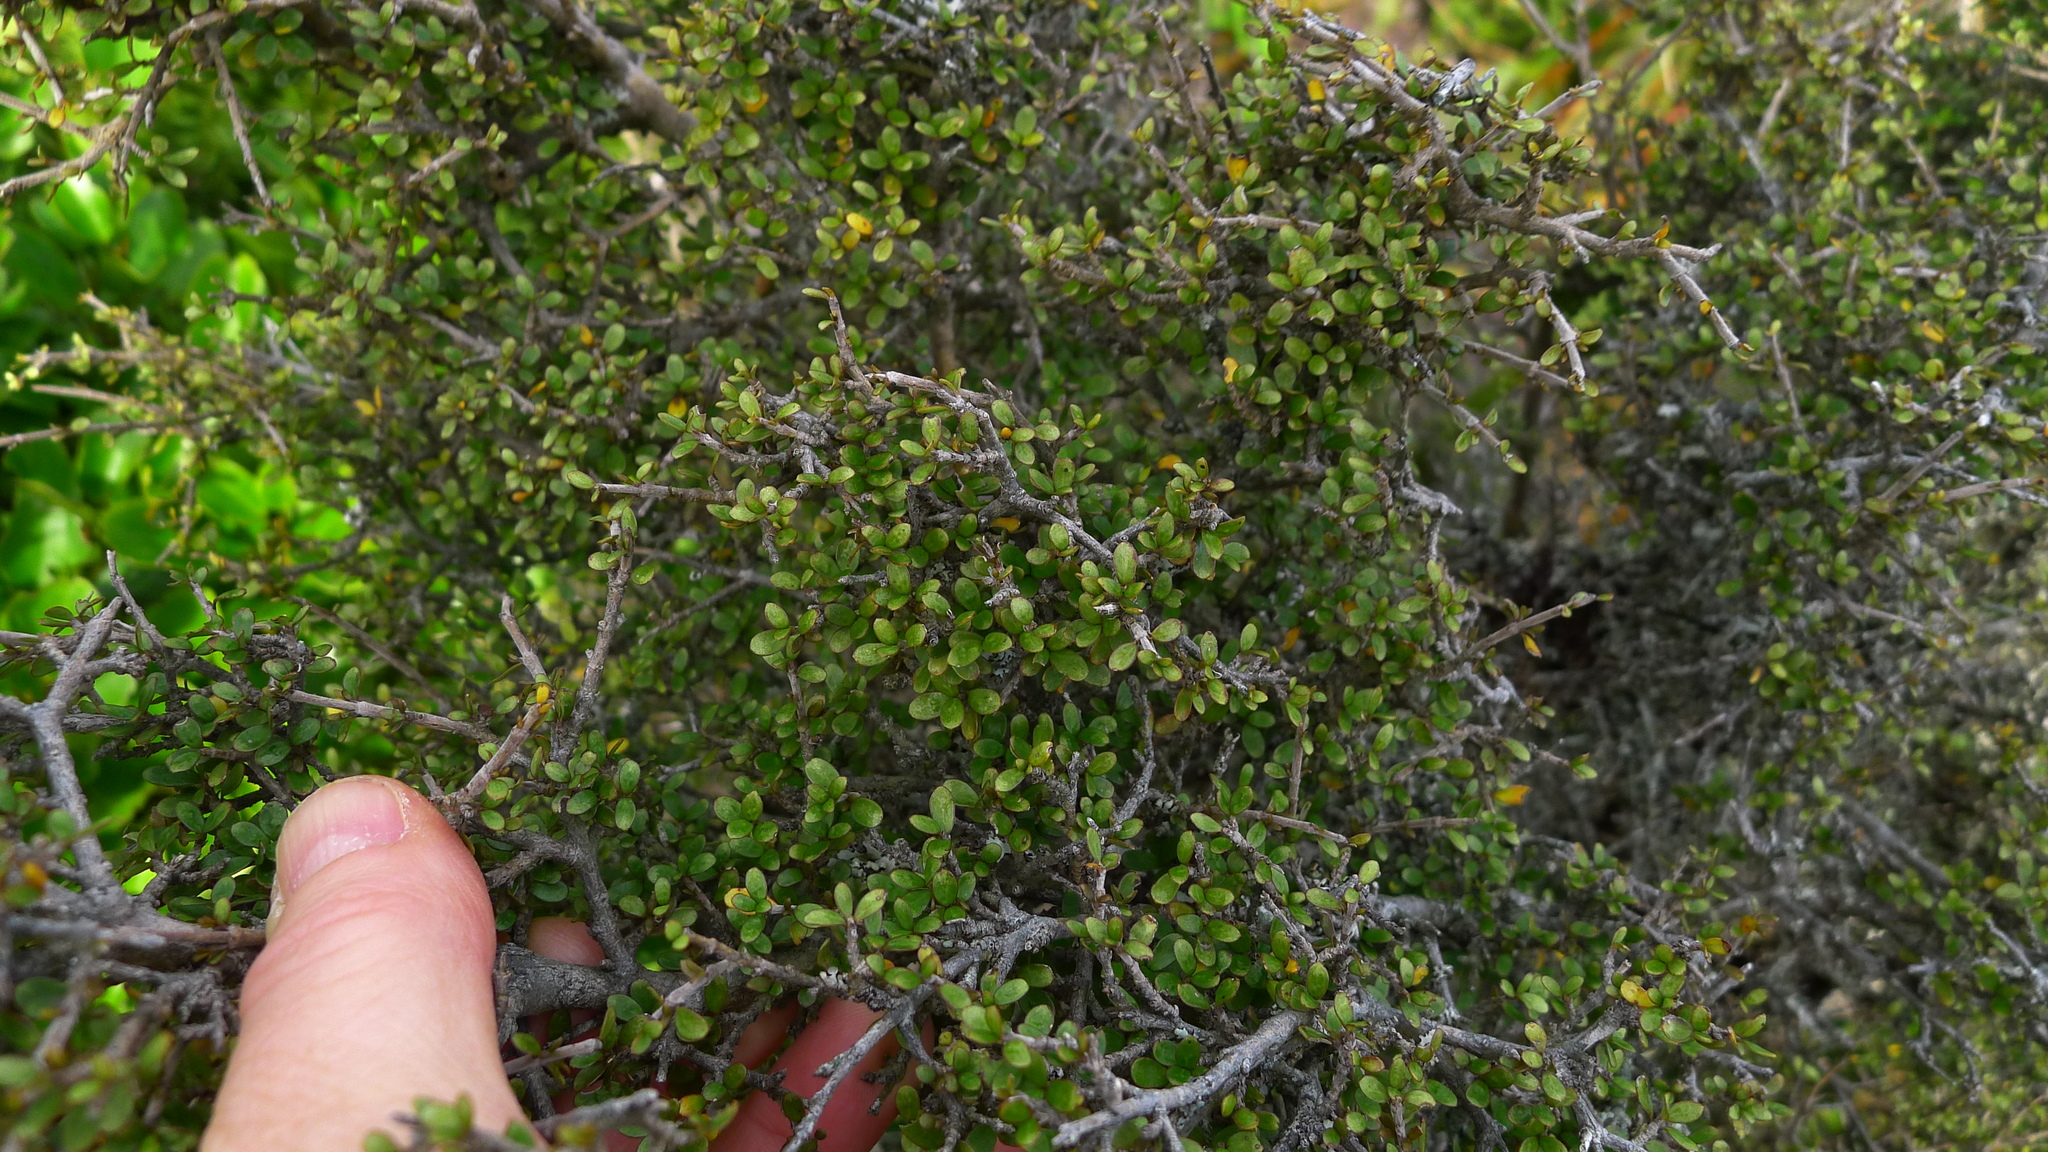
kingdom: Plantae
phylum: Tracheophyta
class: Magnoliopsida
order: Gentianales
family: Rubiaceae
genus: Coprosma
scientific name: Coprosma dumosa
